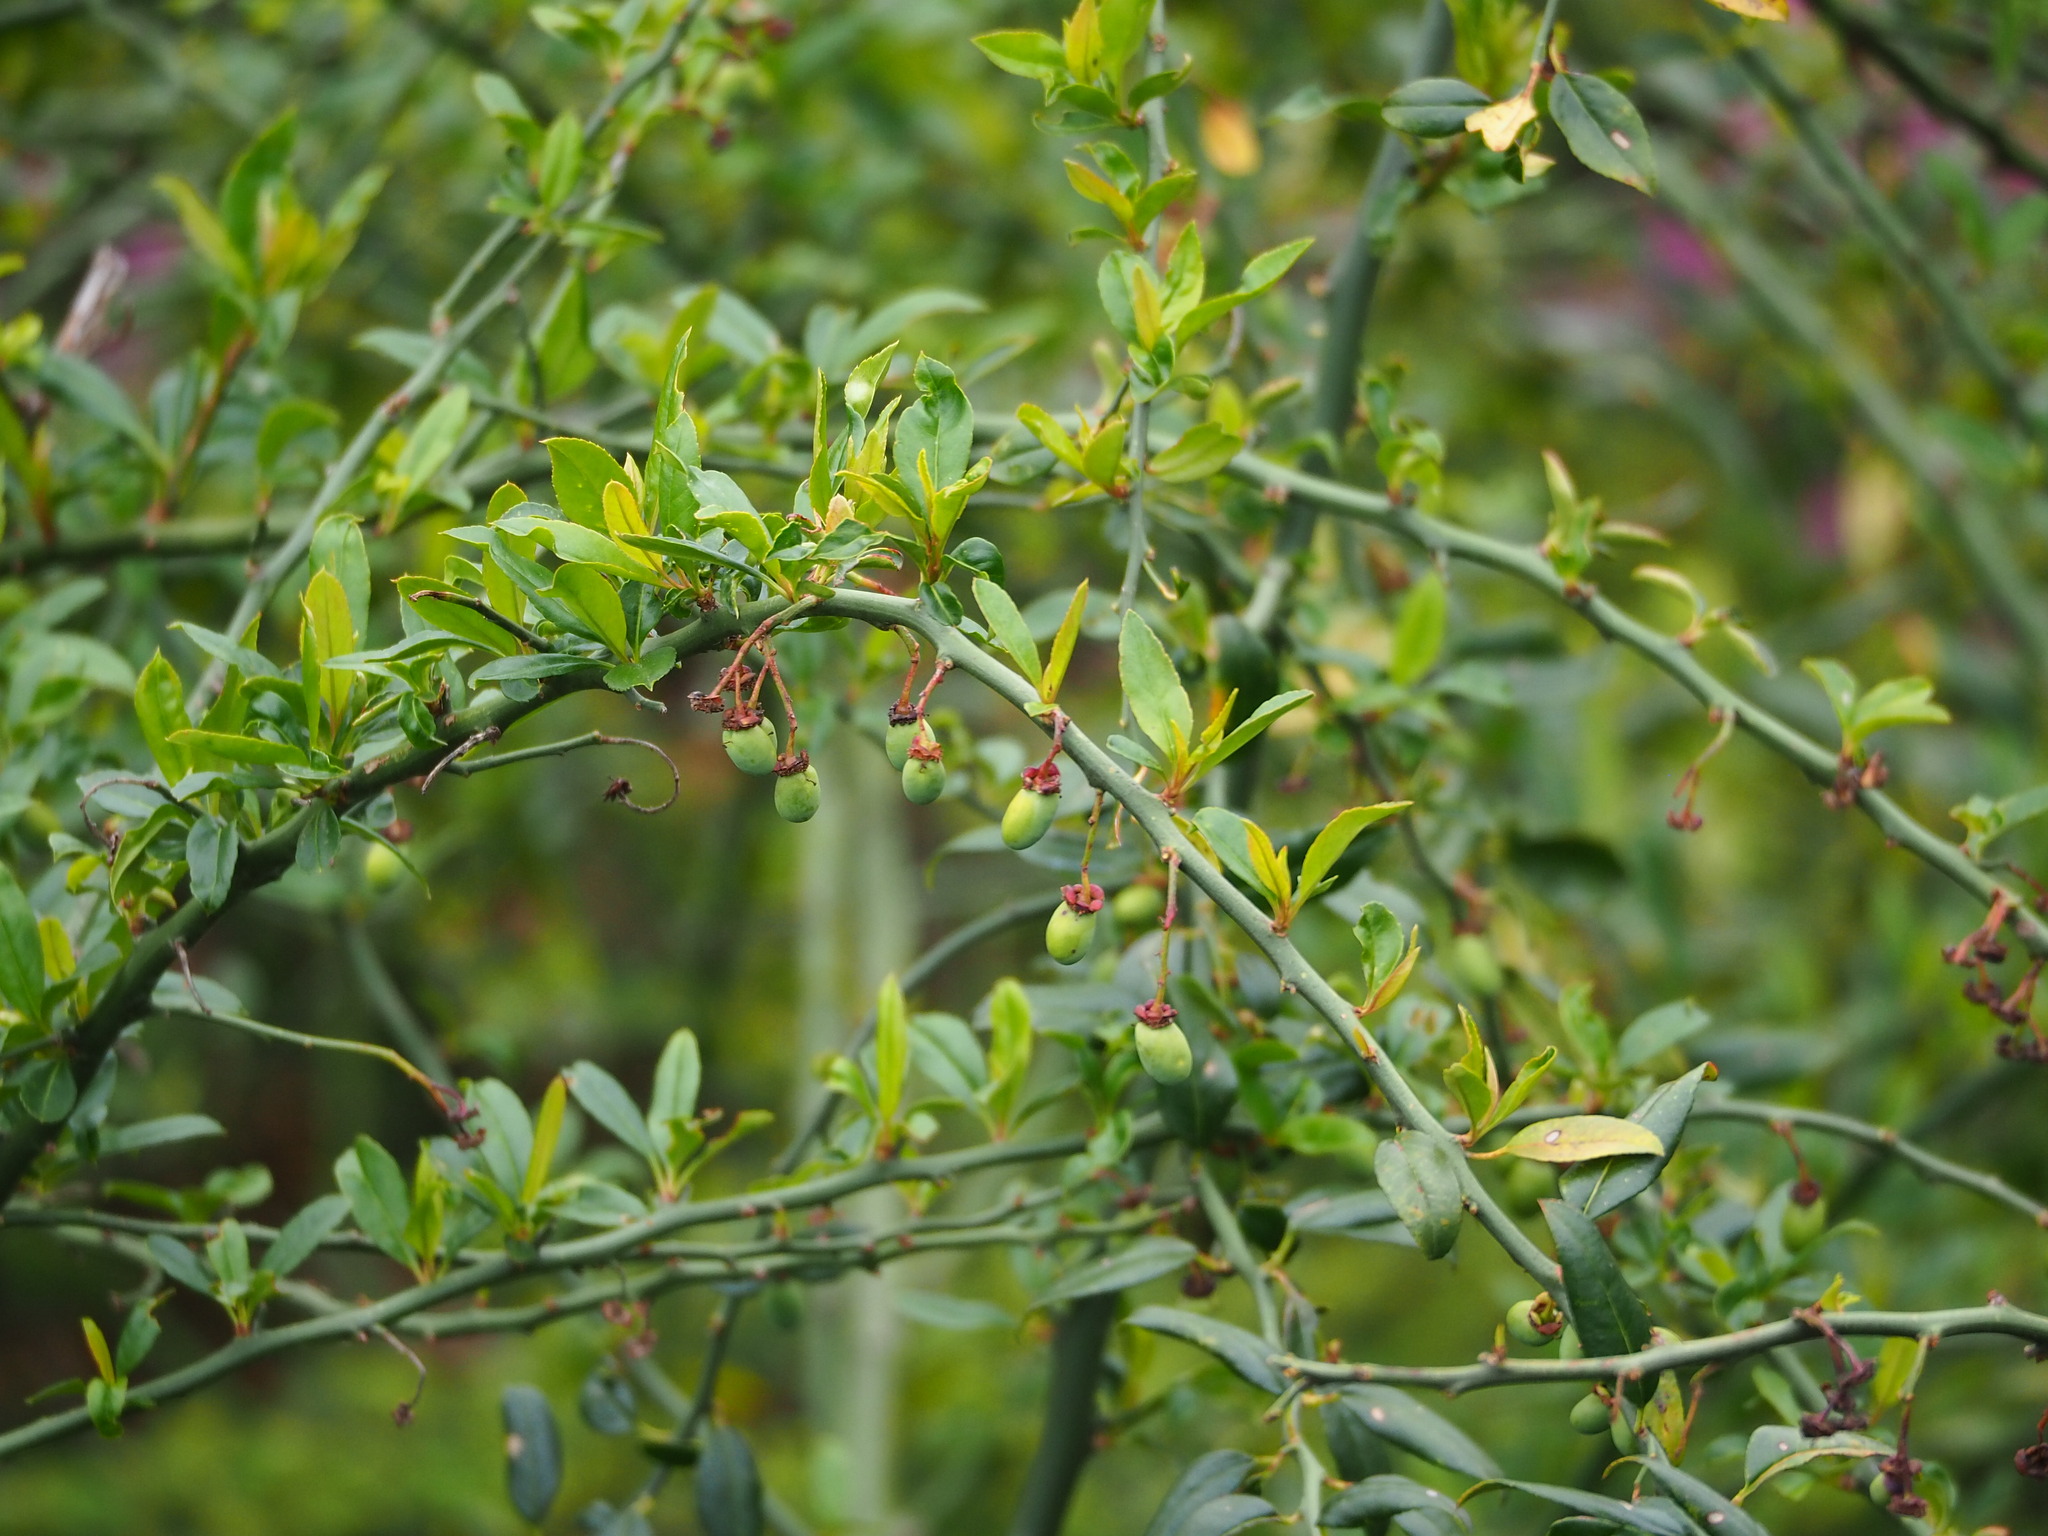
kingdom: Plantae
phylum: Tracheophyta
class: Magnoliopsida
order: Rosales
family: Rosaceae
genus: Prinsepia
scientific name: Prinsepia scandens
